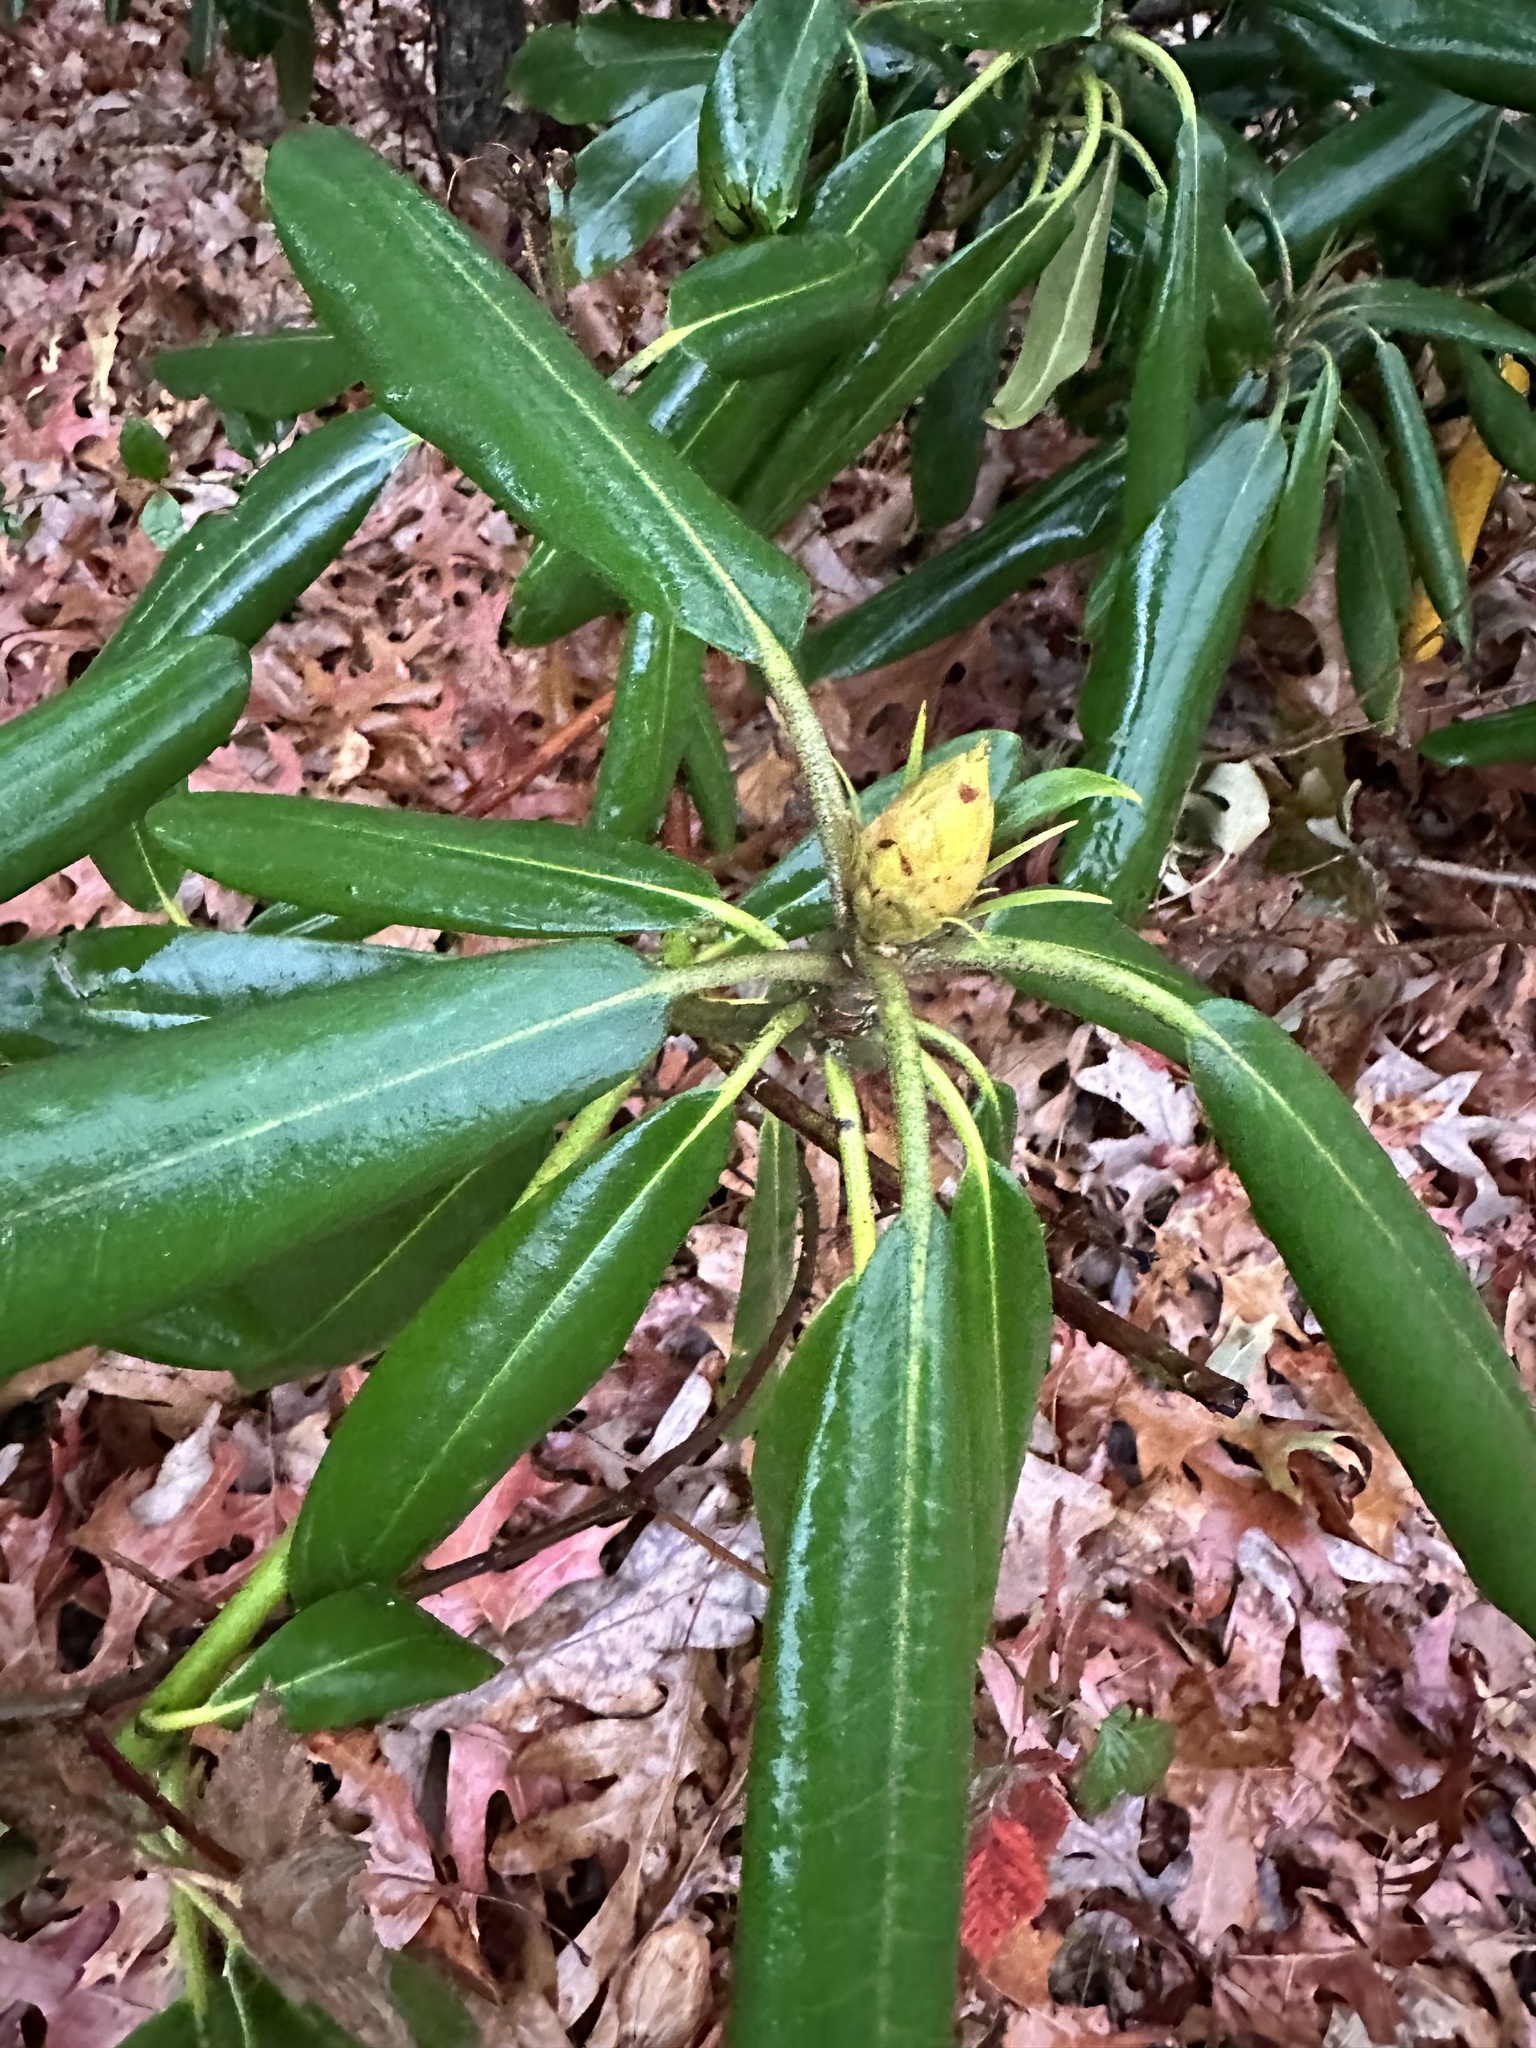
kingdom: Plantae
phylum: Tracheophyta
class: Magnoliopsida
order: Ericales
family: Ericaceae
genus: Rhododendron
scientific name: Rhododendron maximum
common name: Great rhododendron
